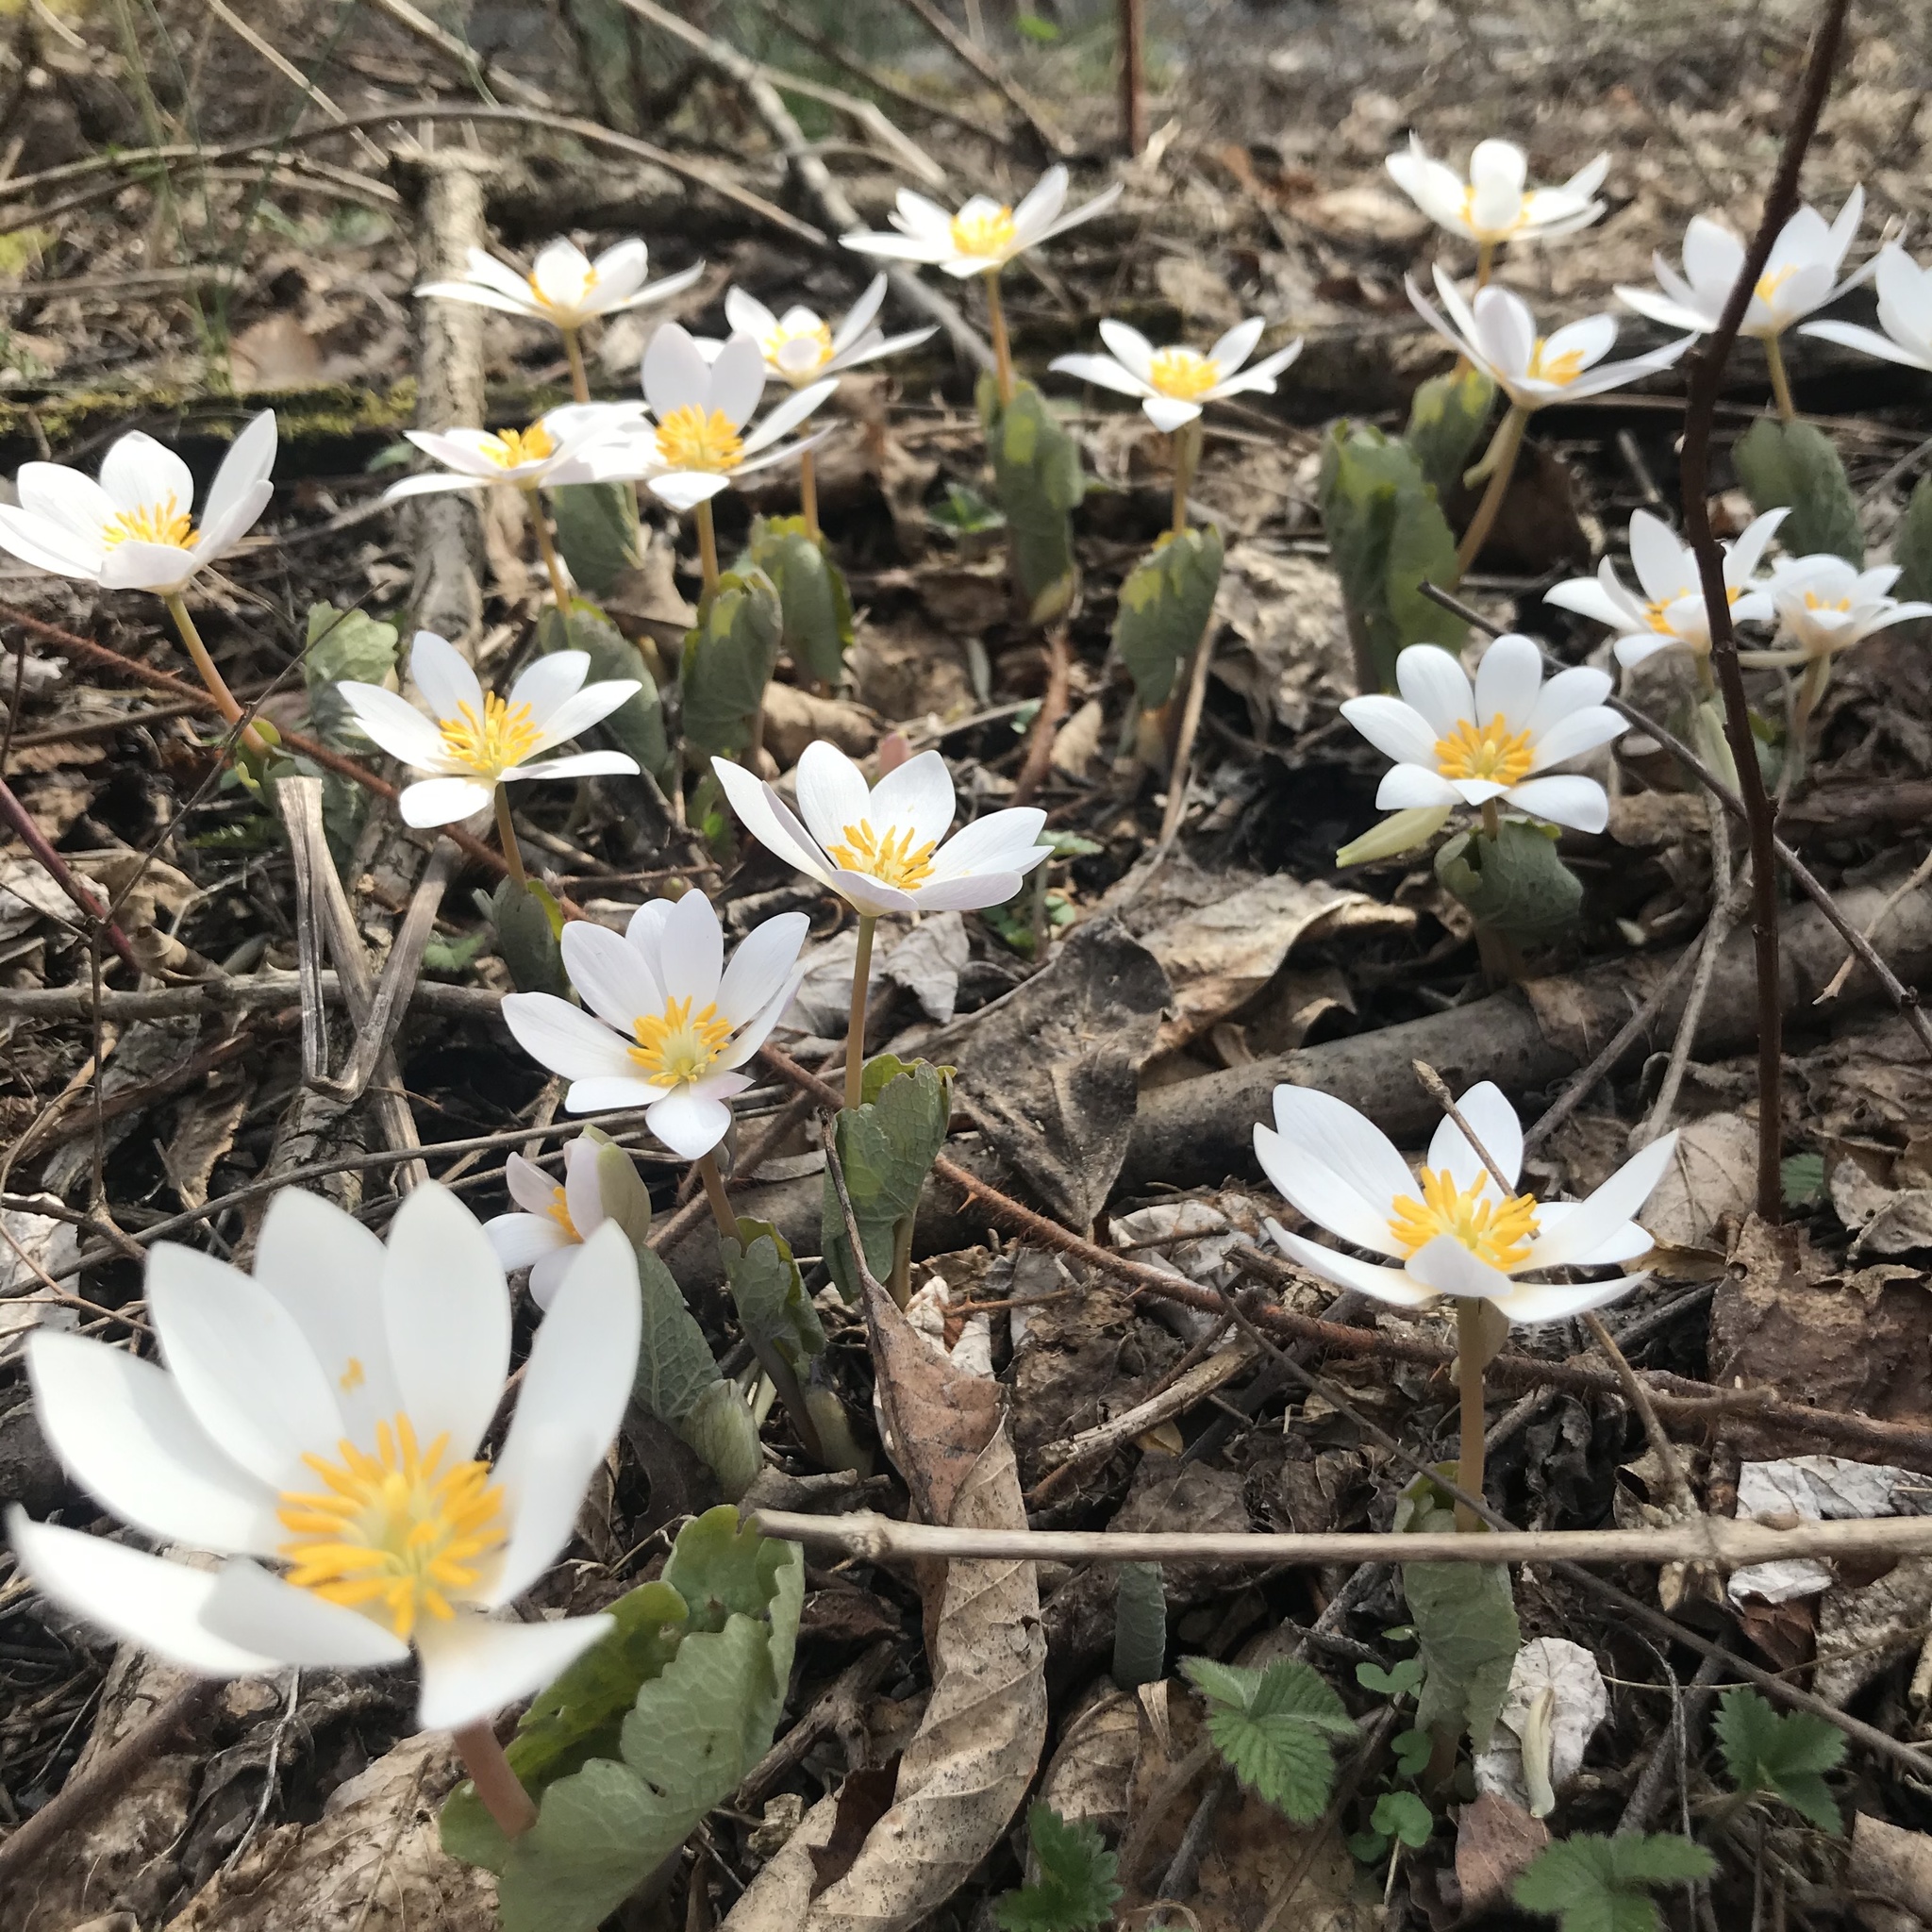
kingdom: Plantae
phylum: Tracheophyta
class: Magnoliopsida
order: Ranunculales
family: Papaveraceae
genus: Sanguinaria
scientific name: Sanguinaria canadensis
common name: Bloodroot
